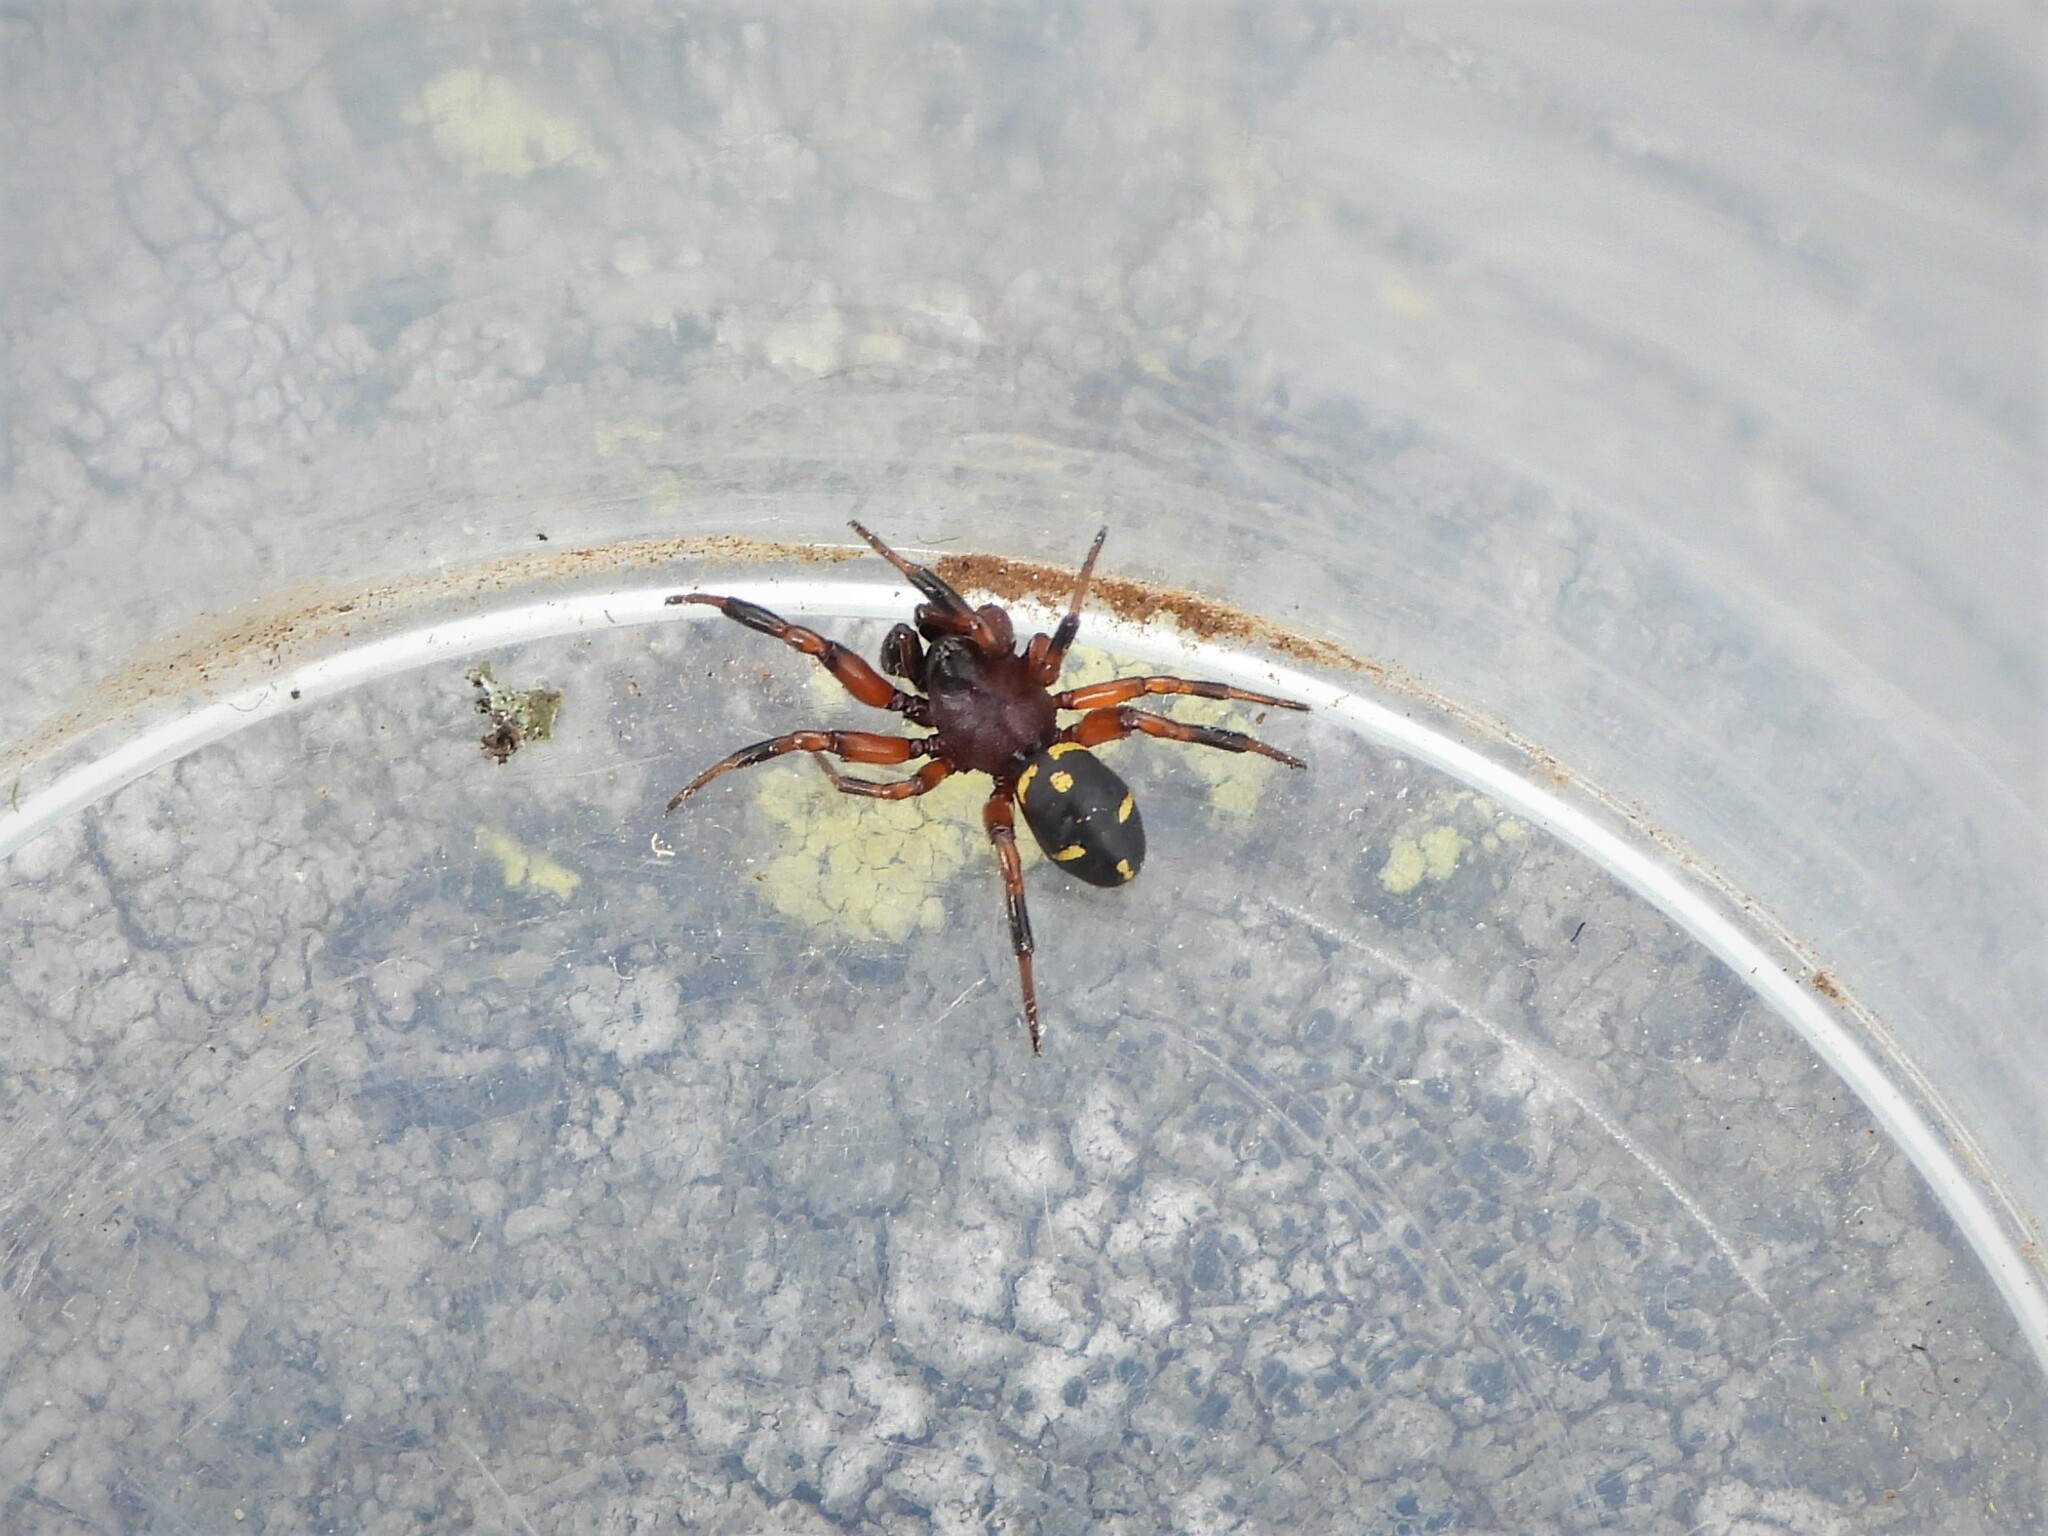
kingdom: Animalia
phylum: Arthropoda
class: Arachnida
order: Araneae
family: Theridiidae
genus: Asagena
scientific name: Asagena phalerata
